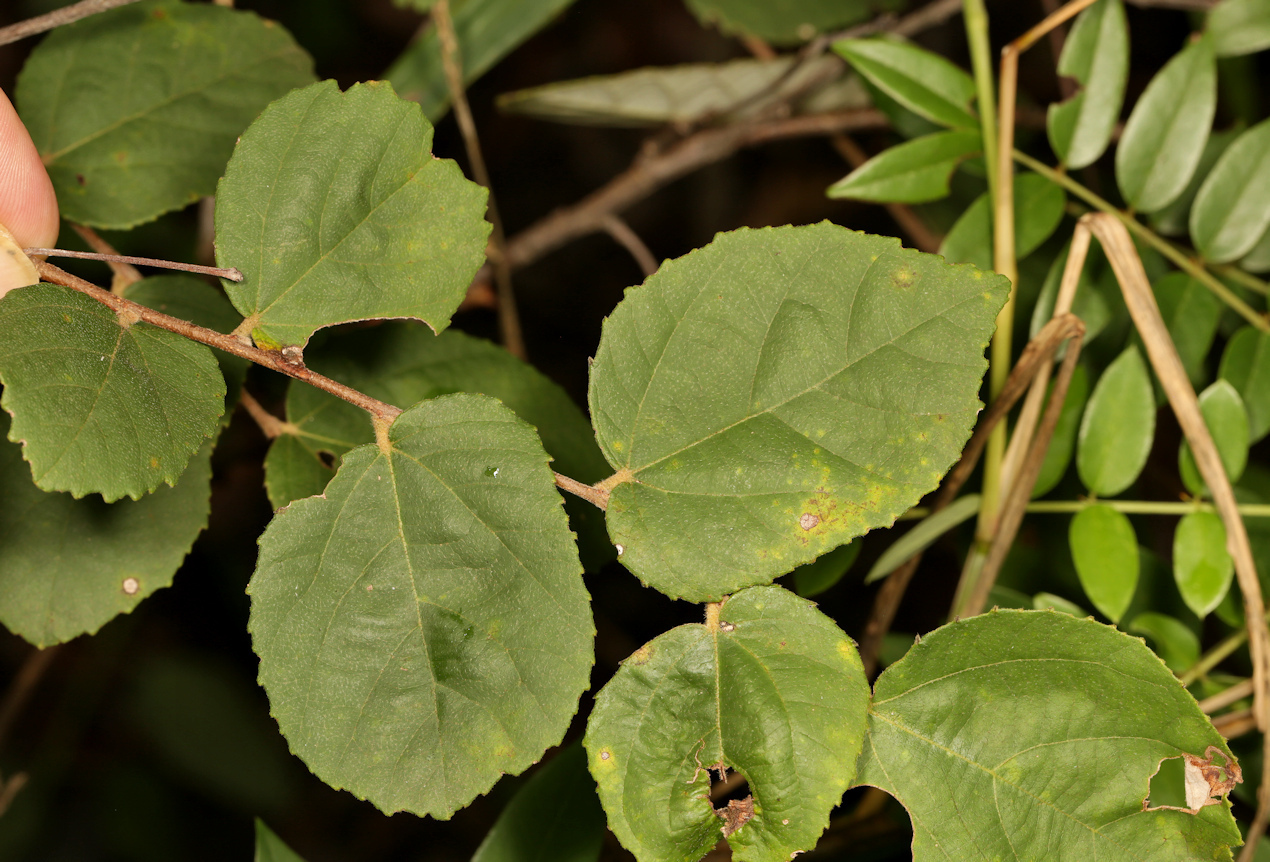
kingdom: Plantae
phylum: Tracheophyta
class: Magnoliopsida
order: Malvales
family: Malvaceae
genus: Grewia
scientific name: Grewia monticola
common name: Grey raisin
